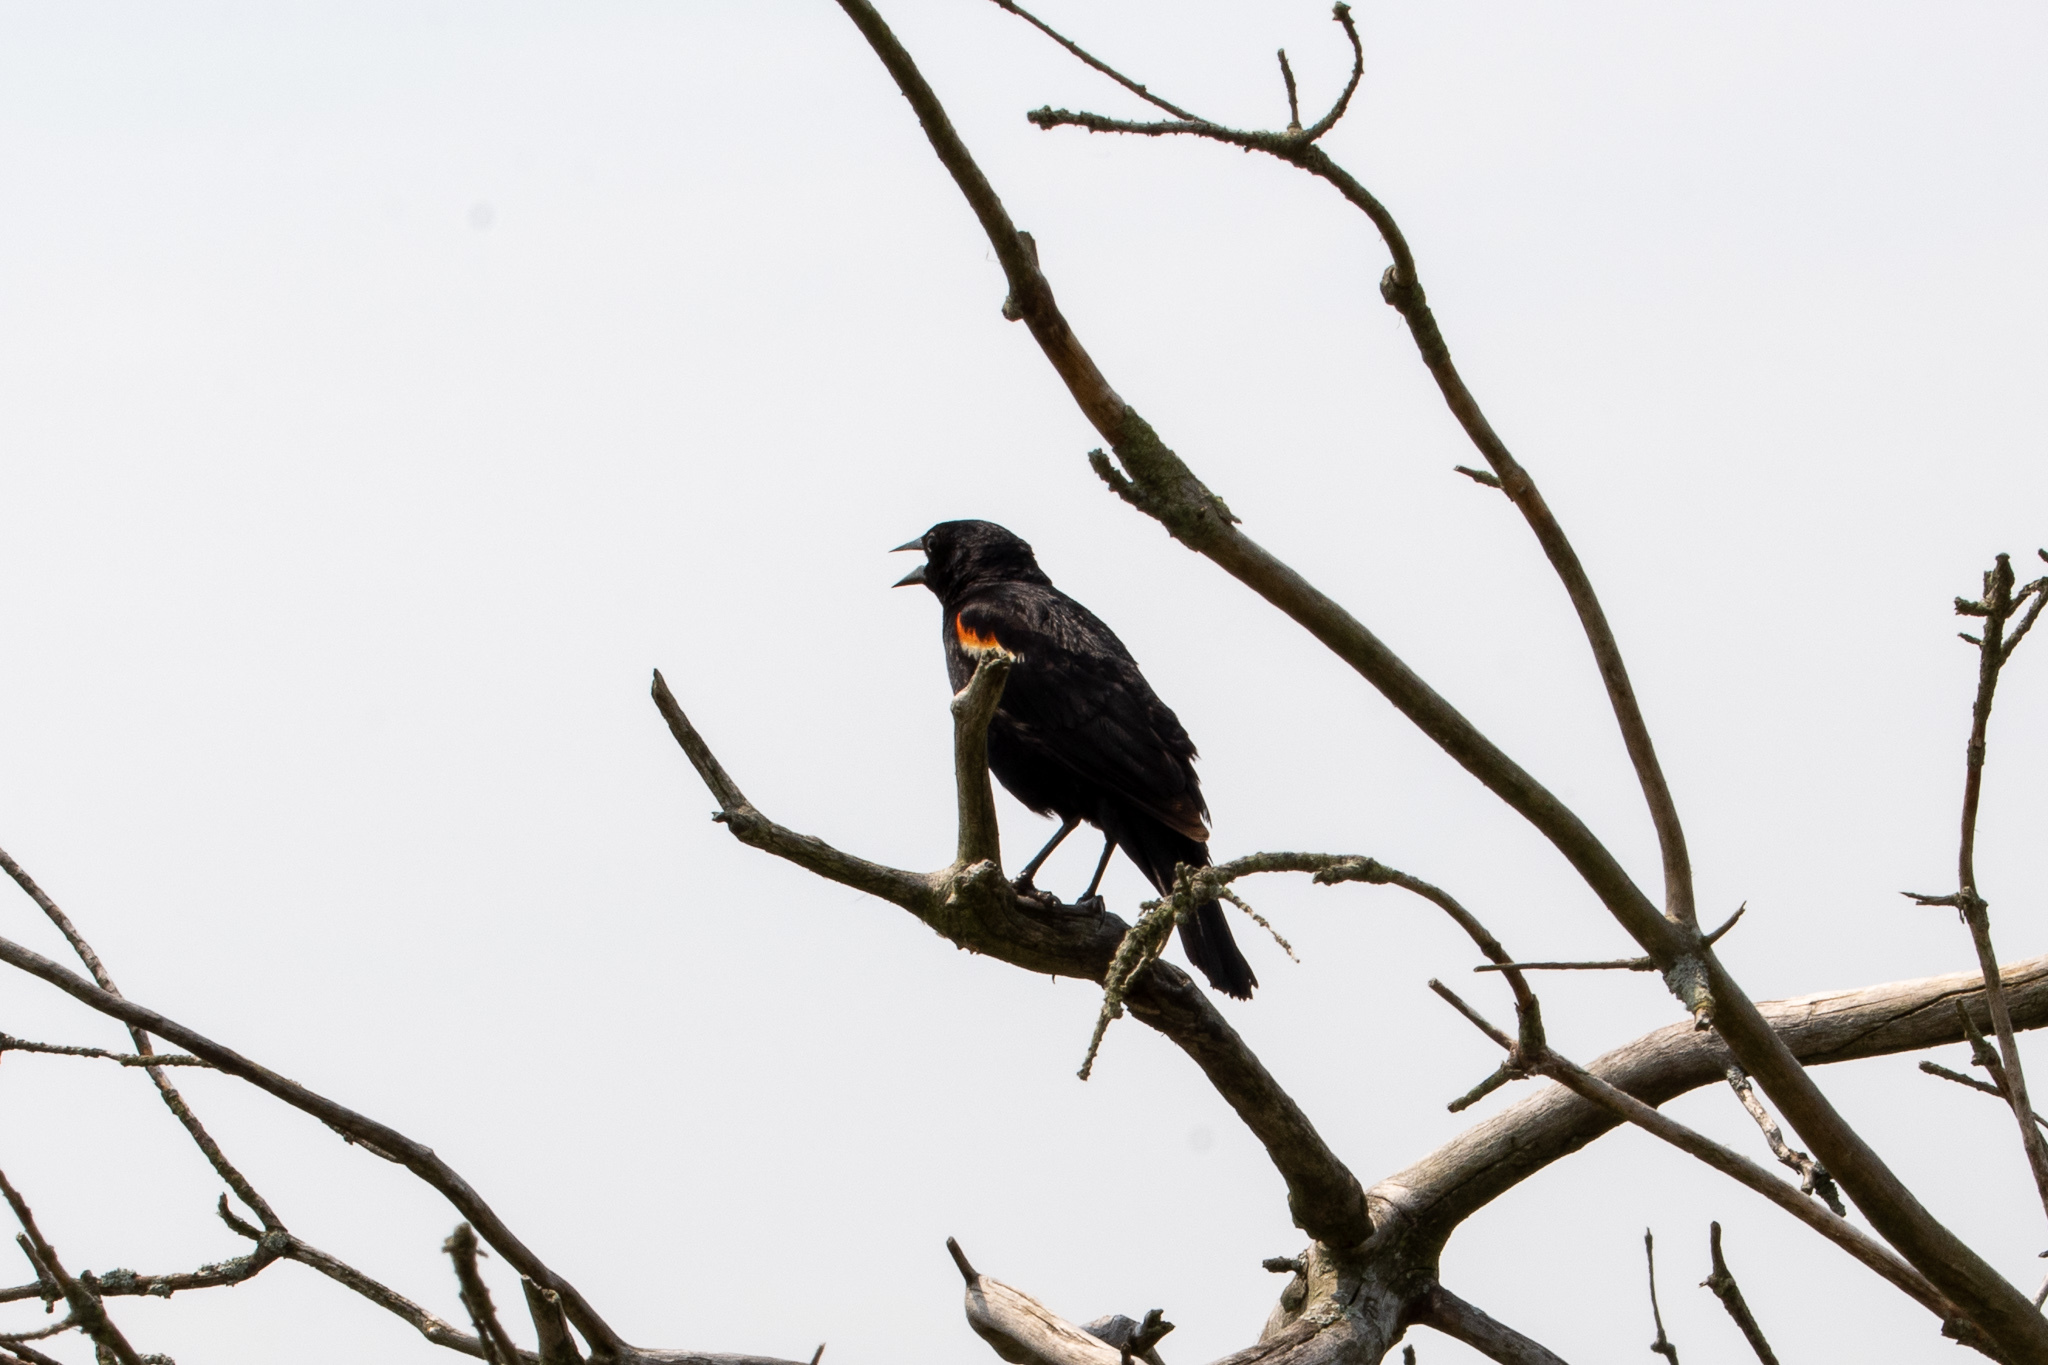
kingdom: Animalia
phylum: Chordata
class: Aves
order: Passeriformes
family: Icteridae
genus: Agelaius
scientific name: Agelaius phoeniceus
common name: Red-winged blackbird
